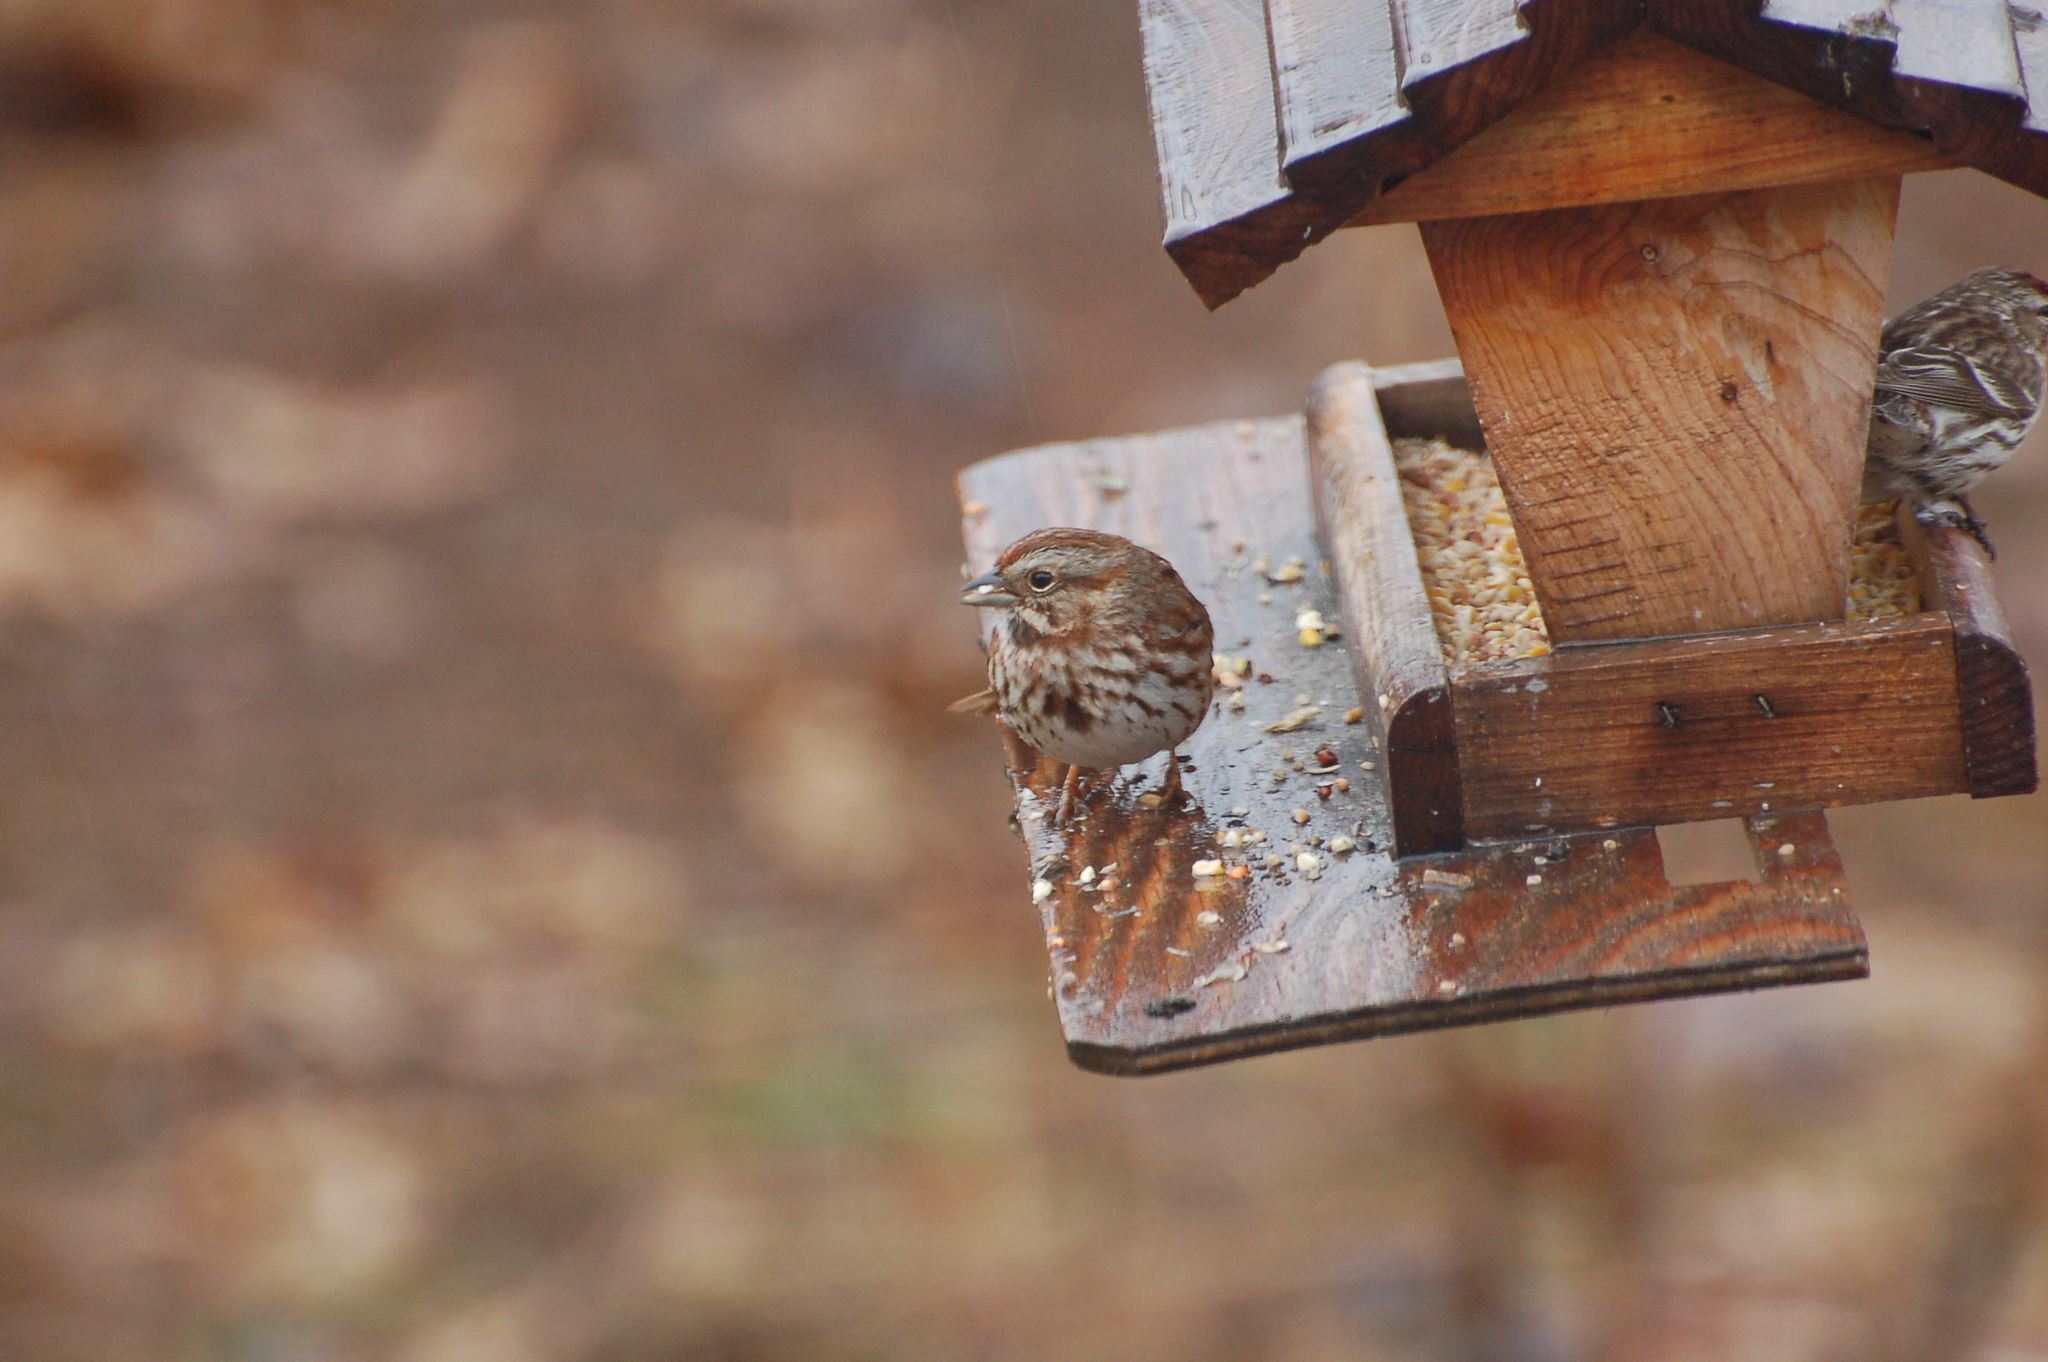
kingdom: Animalia
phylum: Chordata
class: Aves
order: Passeriformes
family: Passerellidae
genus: Melospiza
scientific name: Melospiza melodia
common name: Song sparrow
